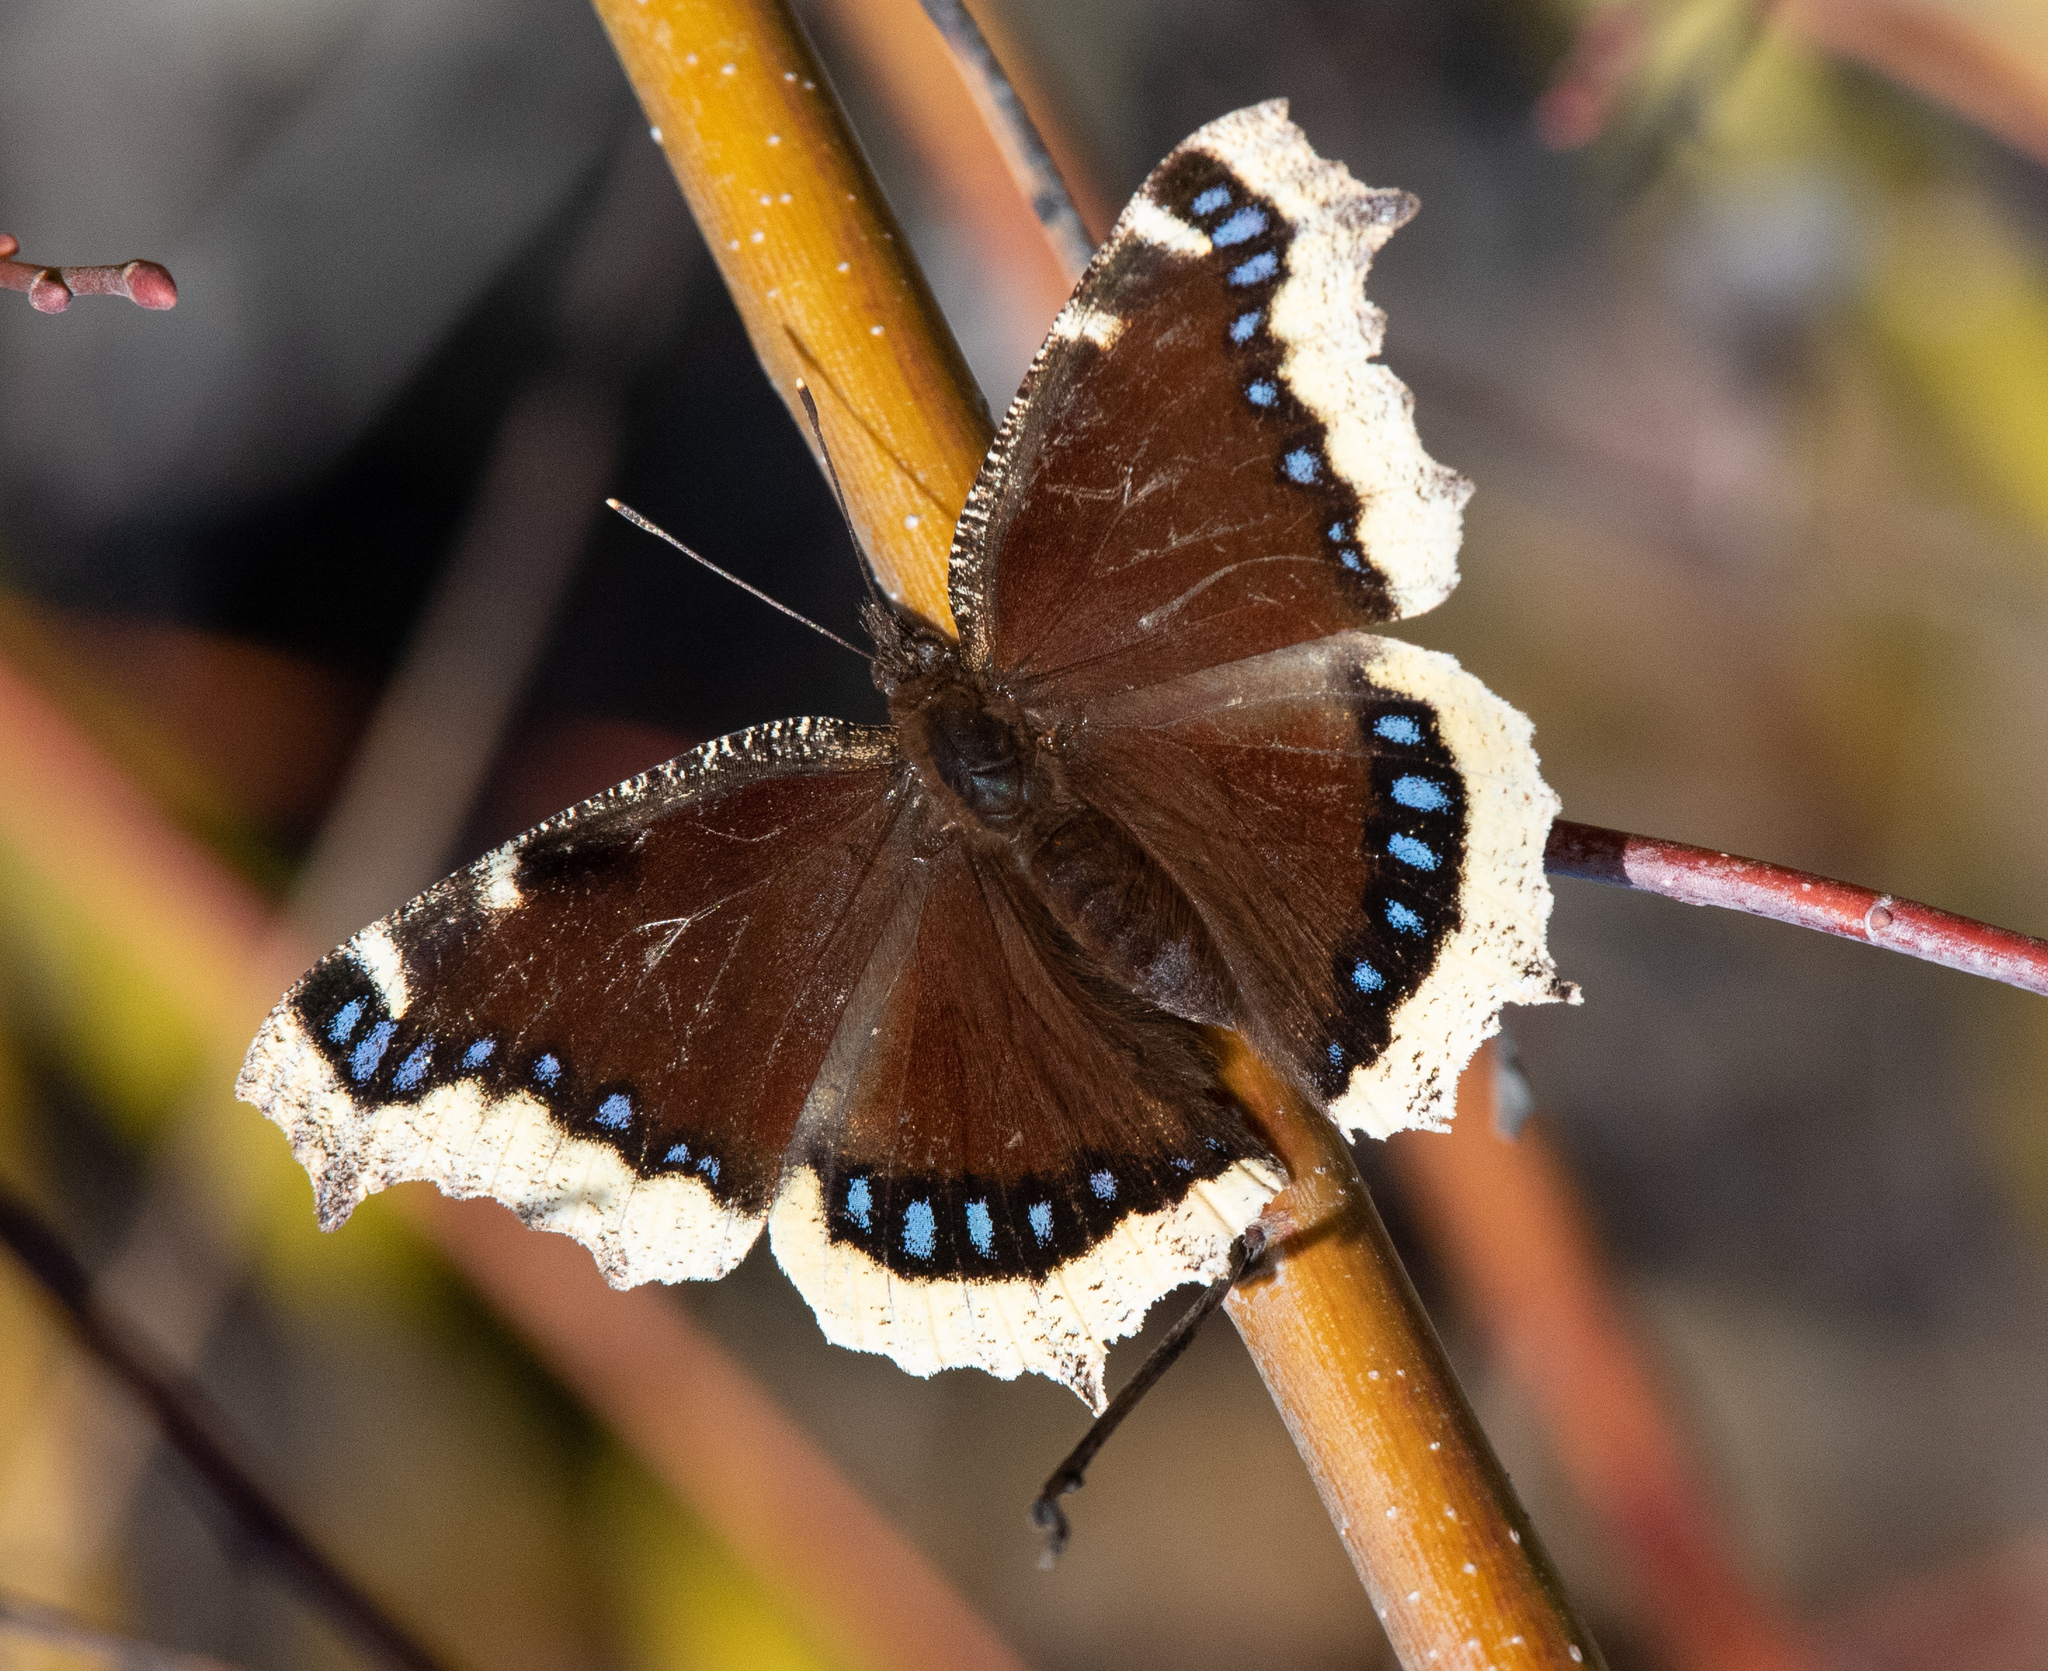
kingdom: Animalia
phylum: Arthropoda
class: Insecta
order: Lepidoptera
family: Nymphalidae
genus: Nymphalis
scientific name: Nymphalis antiopa
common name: Camberwell beauty
